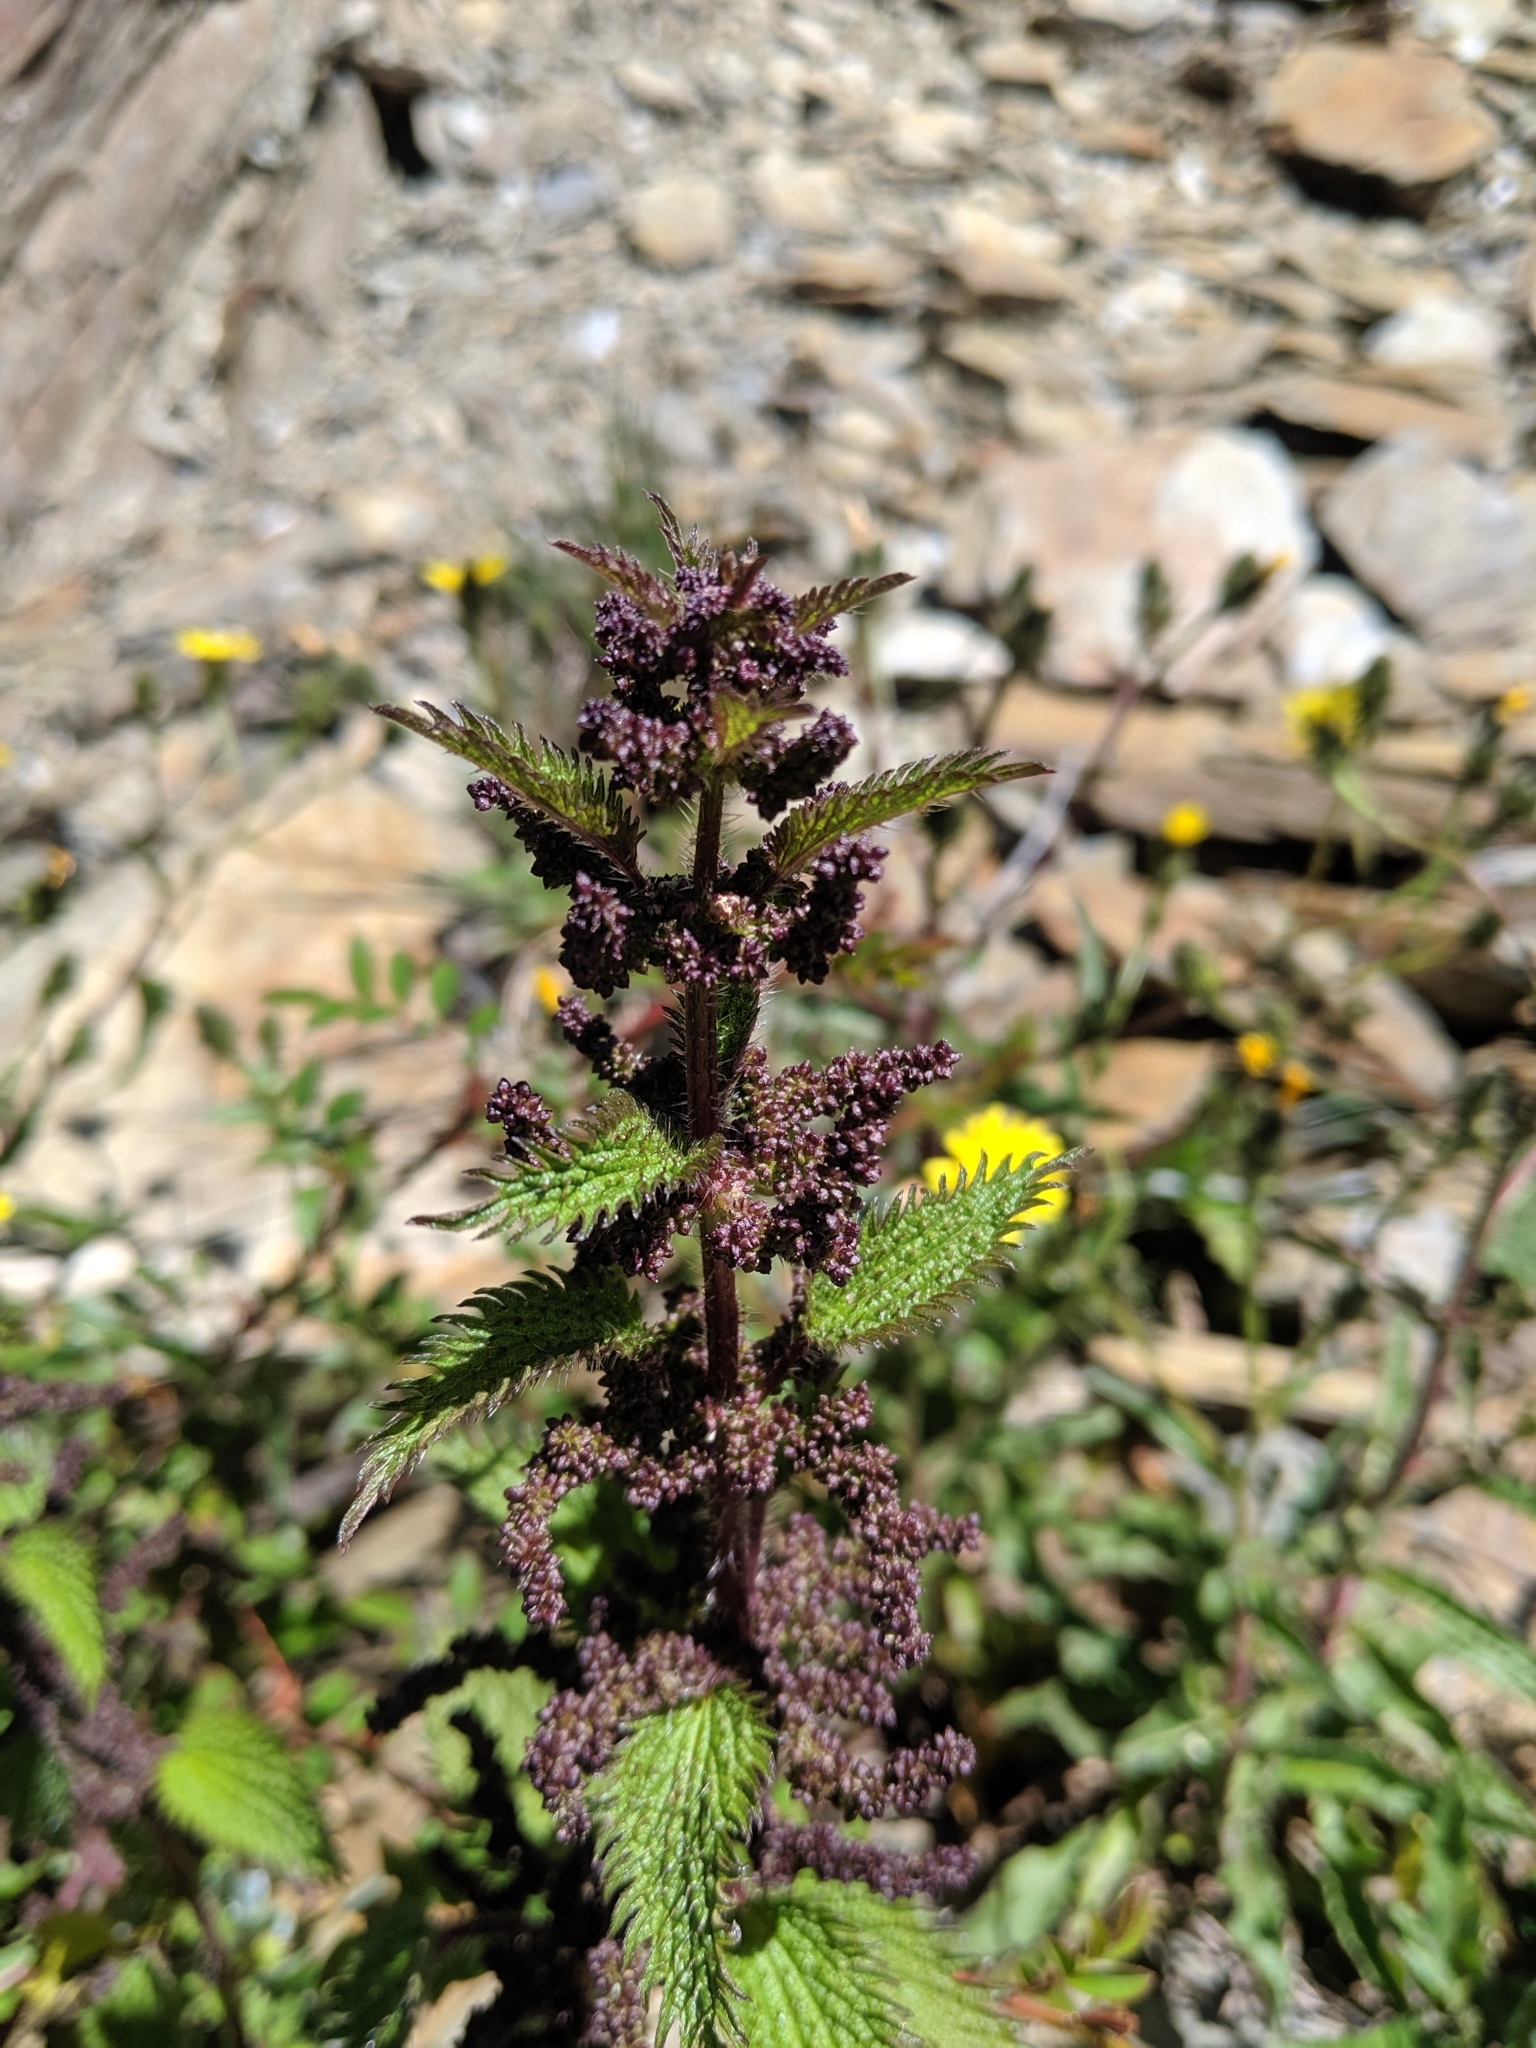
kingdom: Plantae
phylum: Tracheophyta
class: Magnoliopsida
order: Rosales
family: Urticaceae
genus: Urtica
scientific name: Urtica taiwaniana
